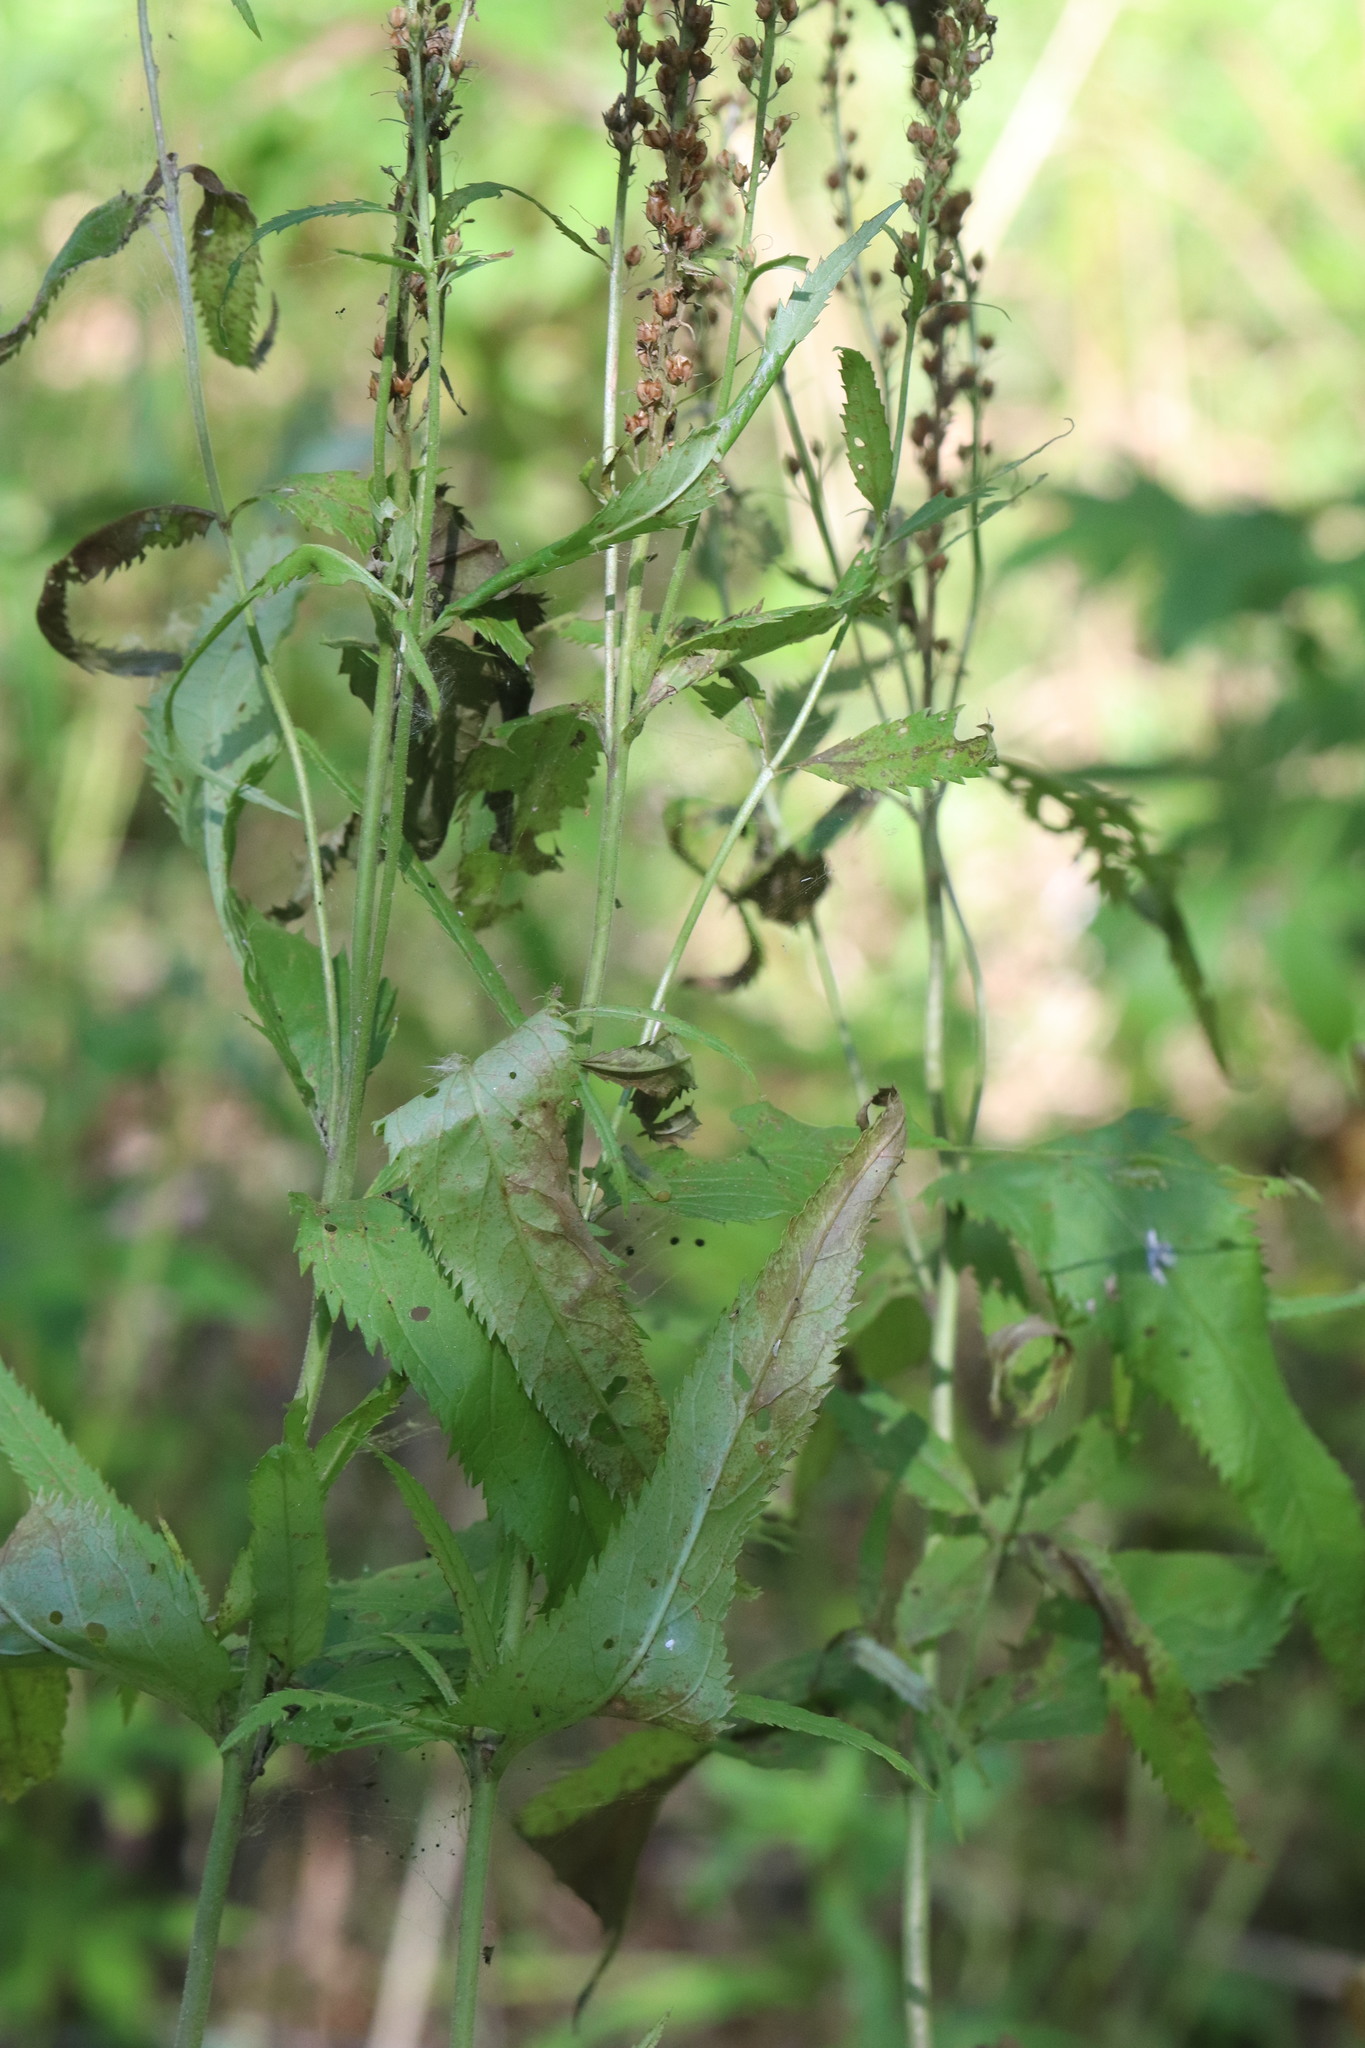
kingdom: Plantae
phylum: Tracheophyta
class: Magnoliopsida
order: Lamiales
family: Plantaginaceae
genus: Veronica
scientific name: Veronica longifolia
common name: Garden speedwell
